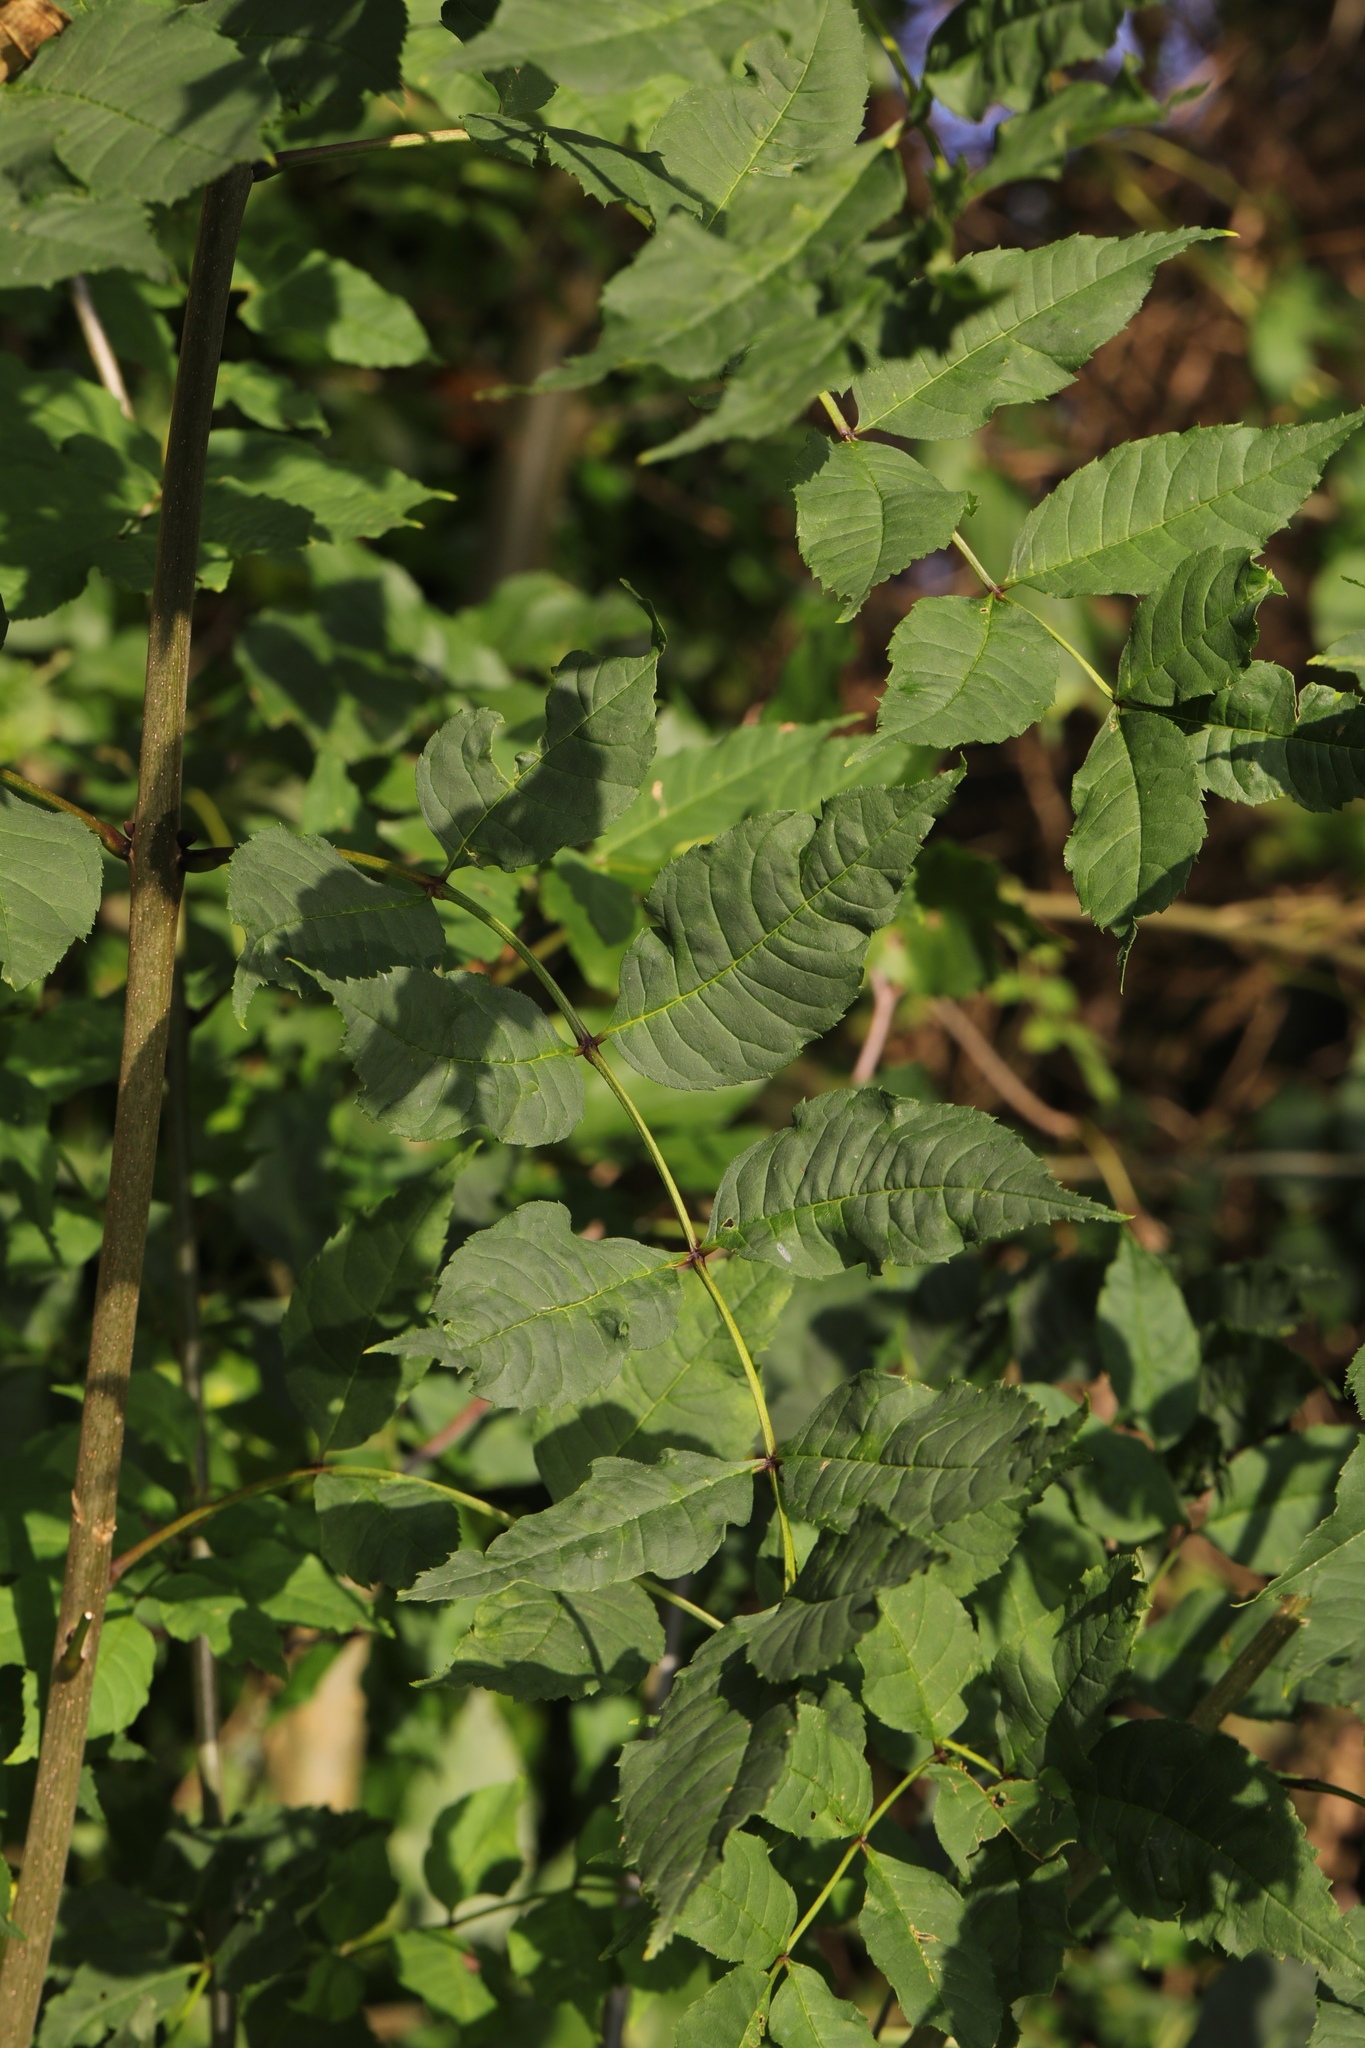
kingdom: Plantae
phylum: Tracheophyta
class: Magnoliopsida
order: Lamiales
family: Oleaceae
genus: Fraxinus
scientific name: Fraxinus excelsior
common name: European ash
